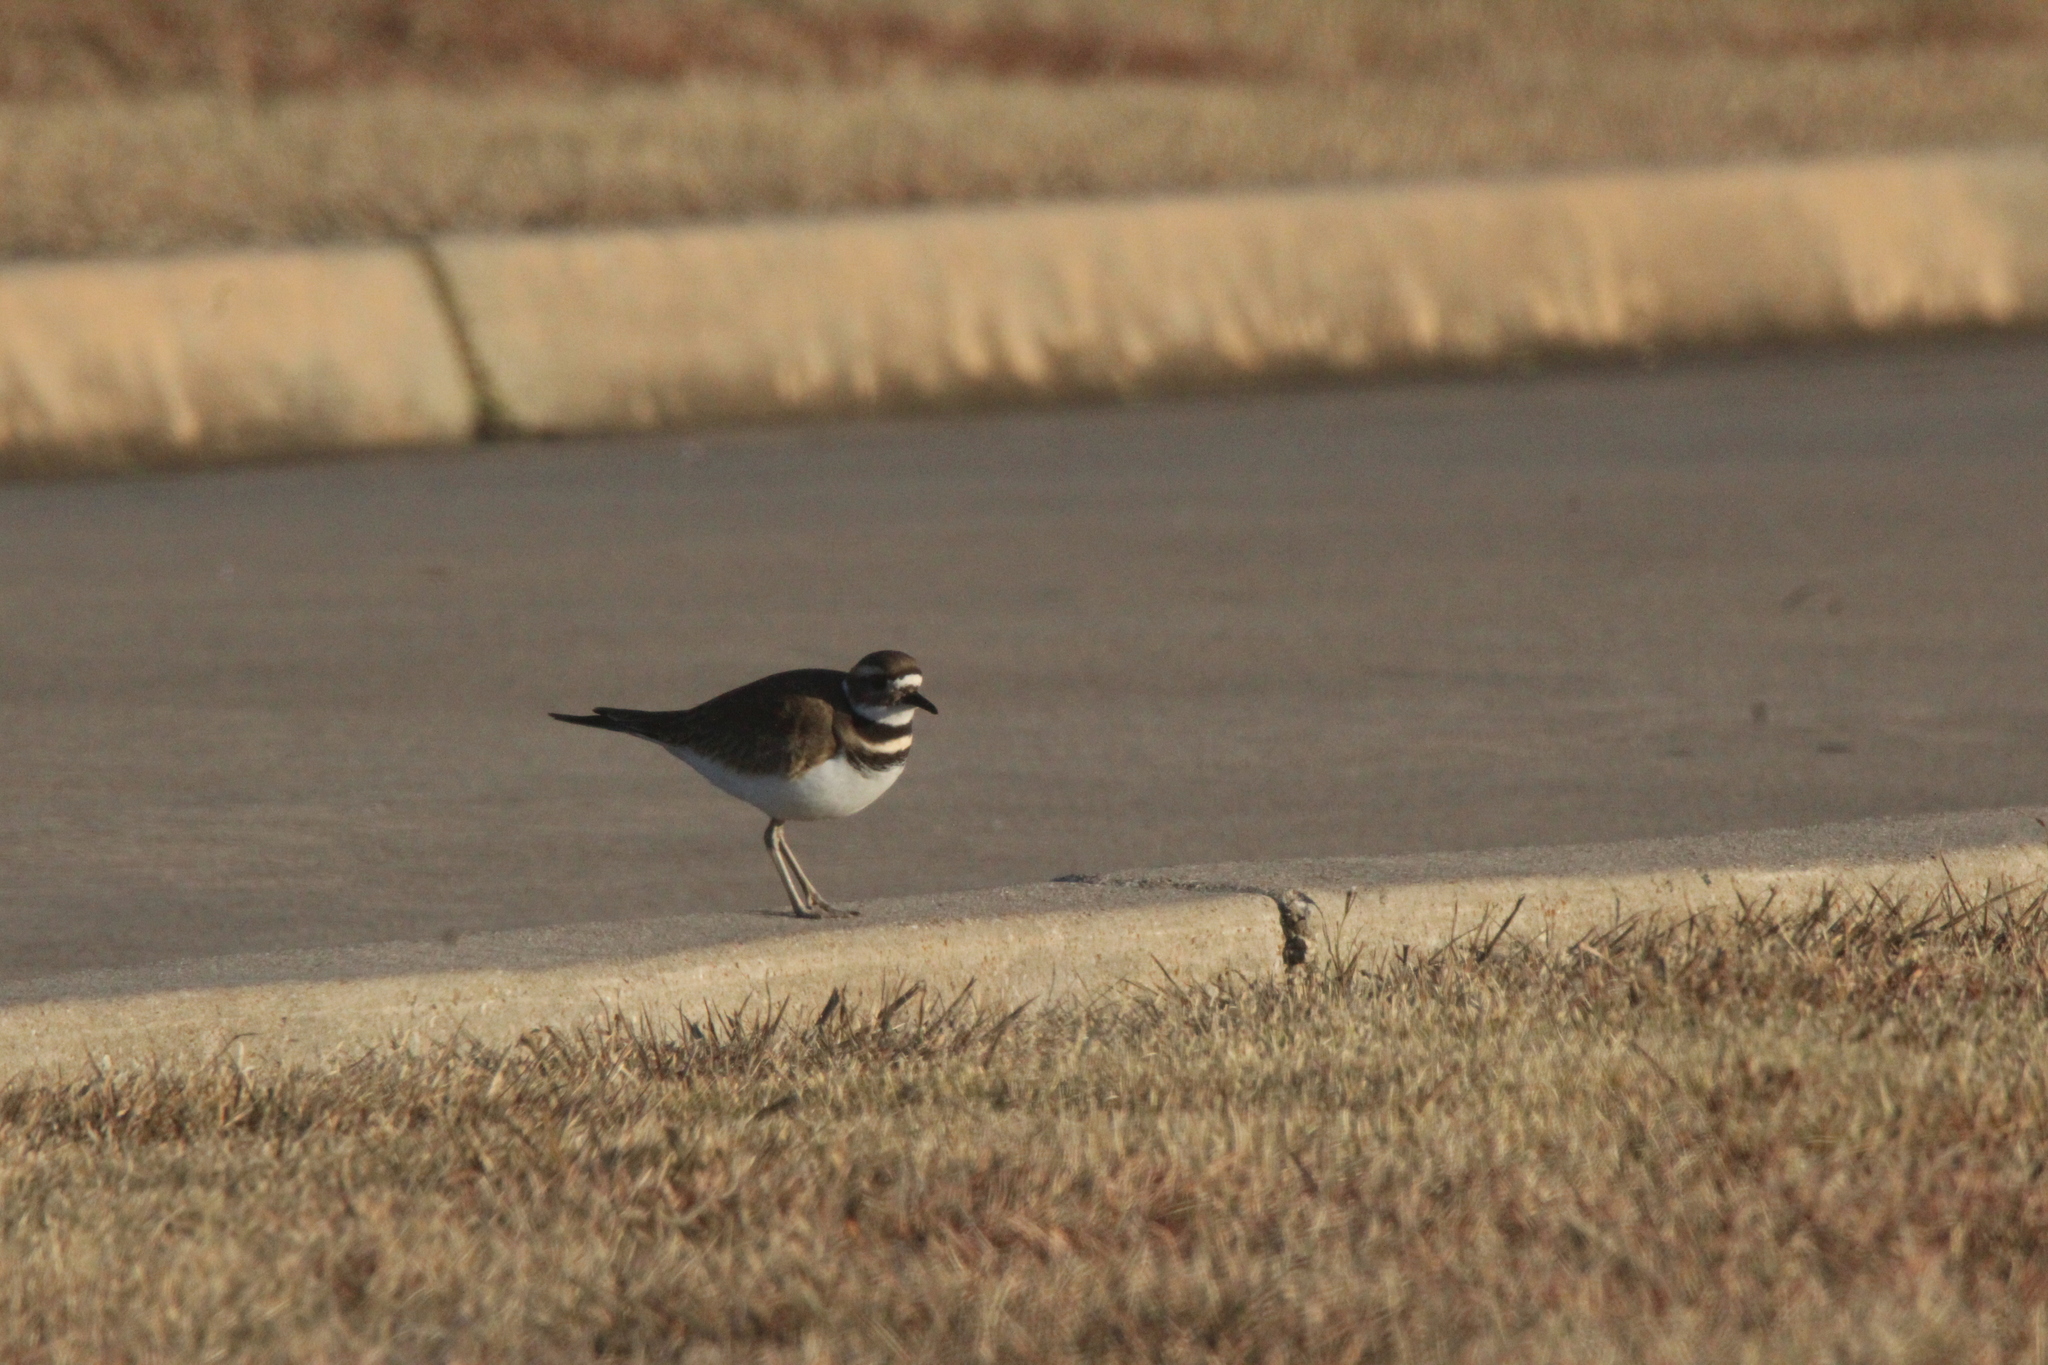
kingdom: Animalia
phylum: Chordata
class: Aves
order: Charadriiformes
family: Charadriidae
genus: Charadrius
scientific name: Charadrius vociferus
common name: Killdeer
